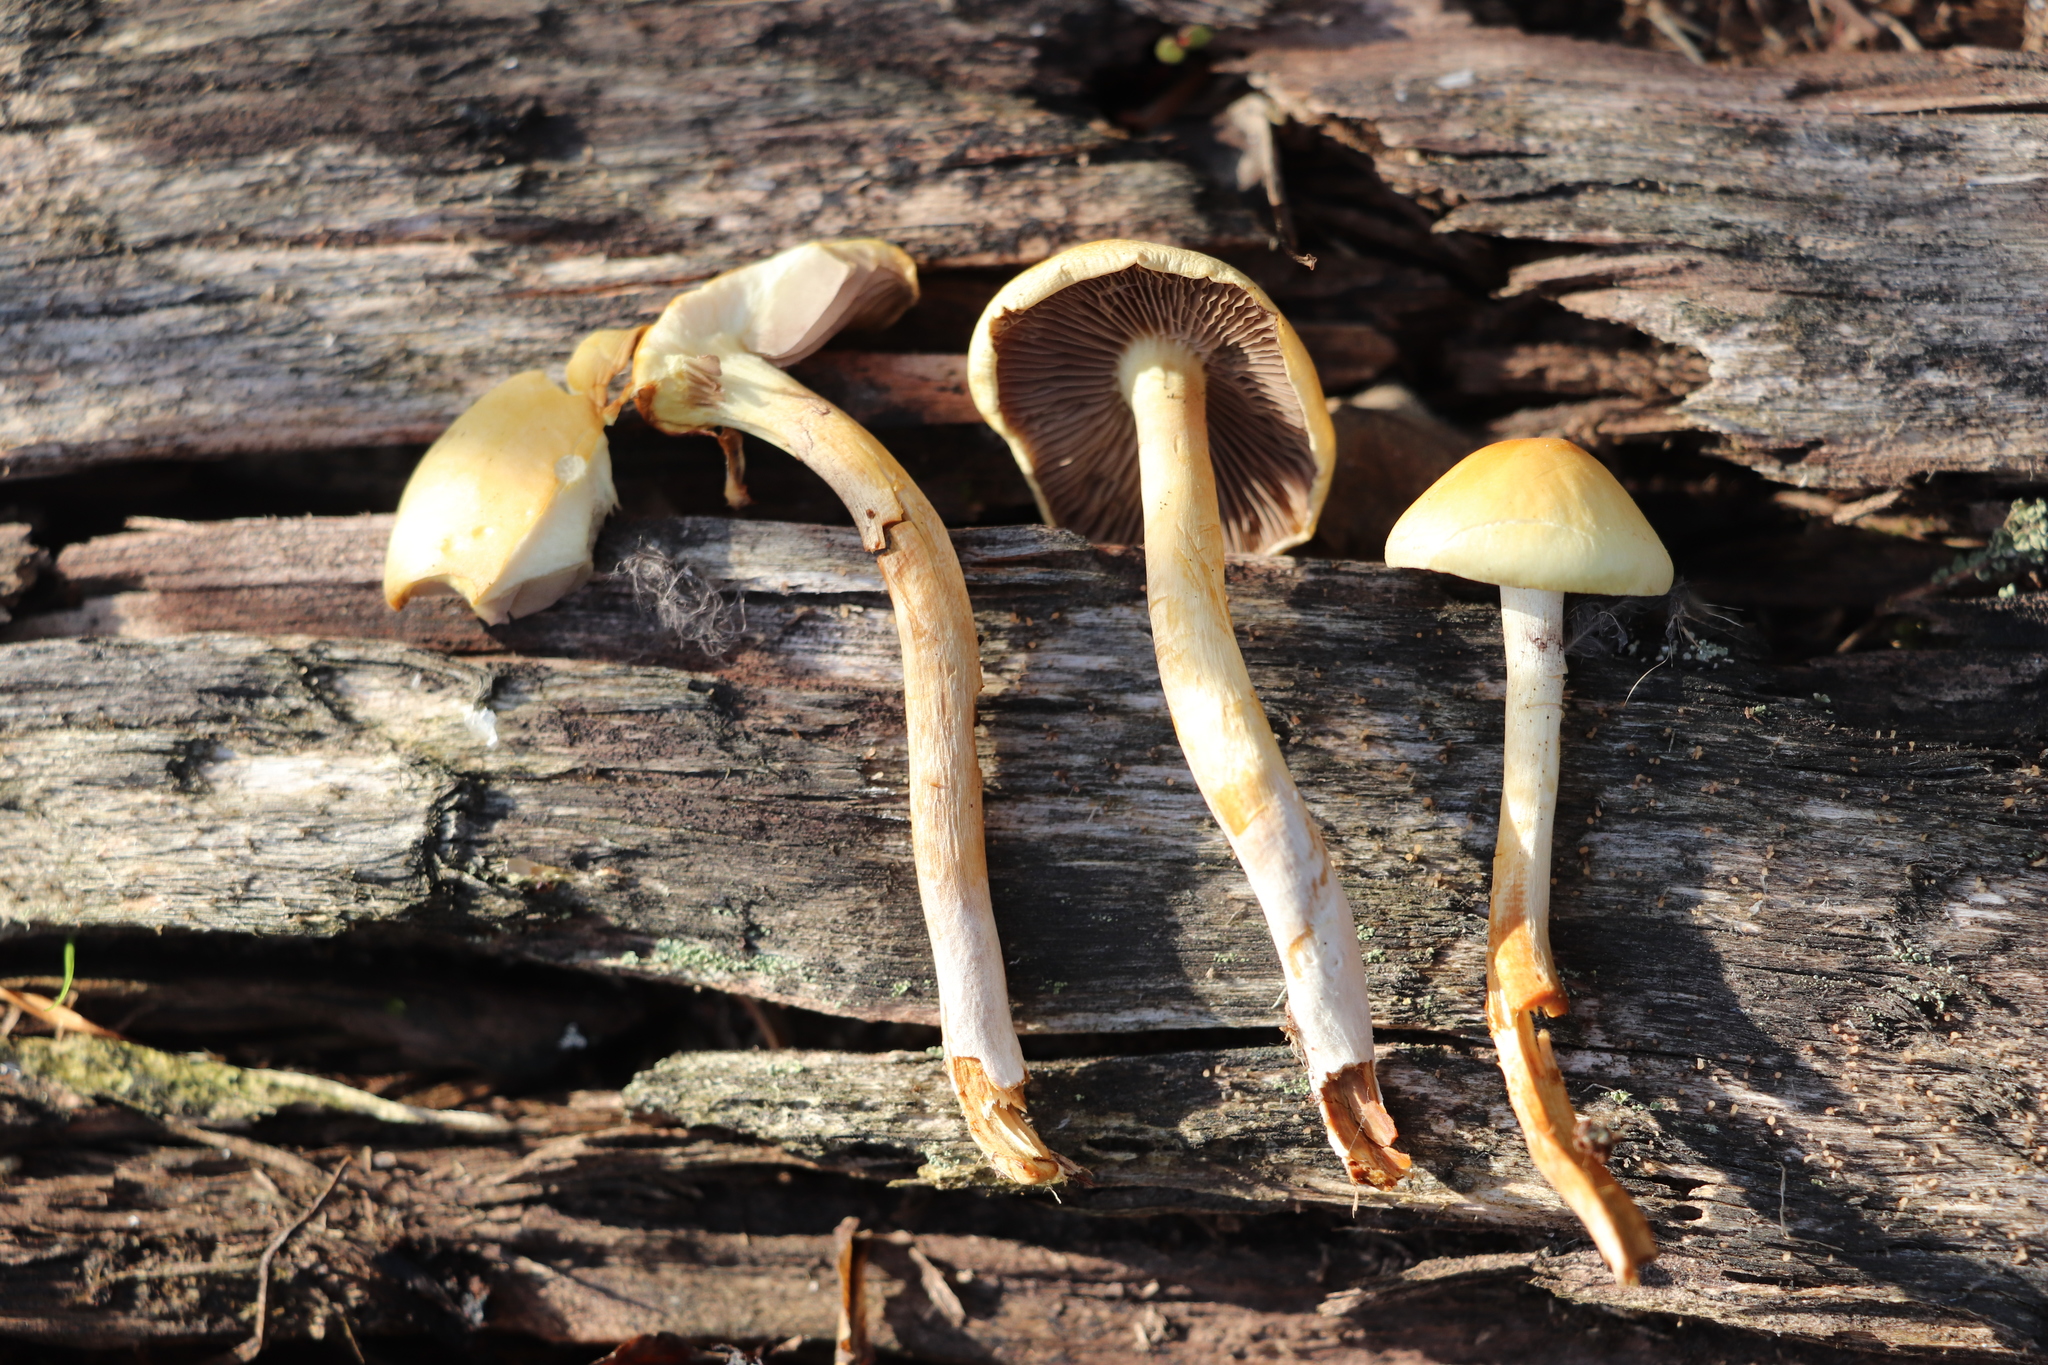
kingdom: Fungi
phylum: Basidiomycota
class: Agaricomycetes
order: Agaricales
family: Strophariaceae
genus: Hypholoma
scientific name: Hypholoma capnoides
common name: Conifer tuft
